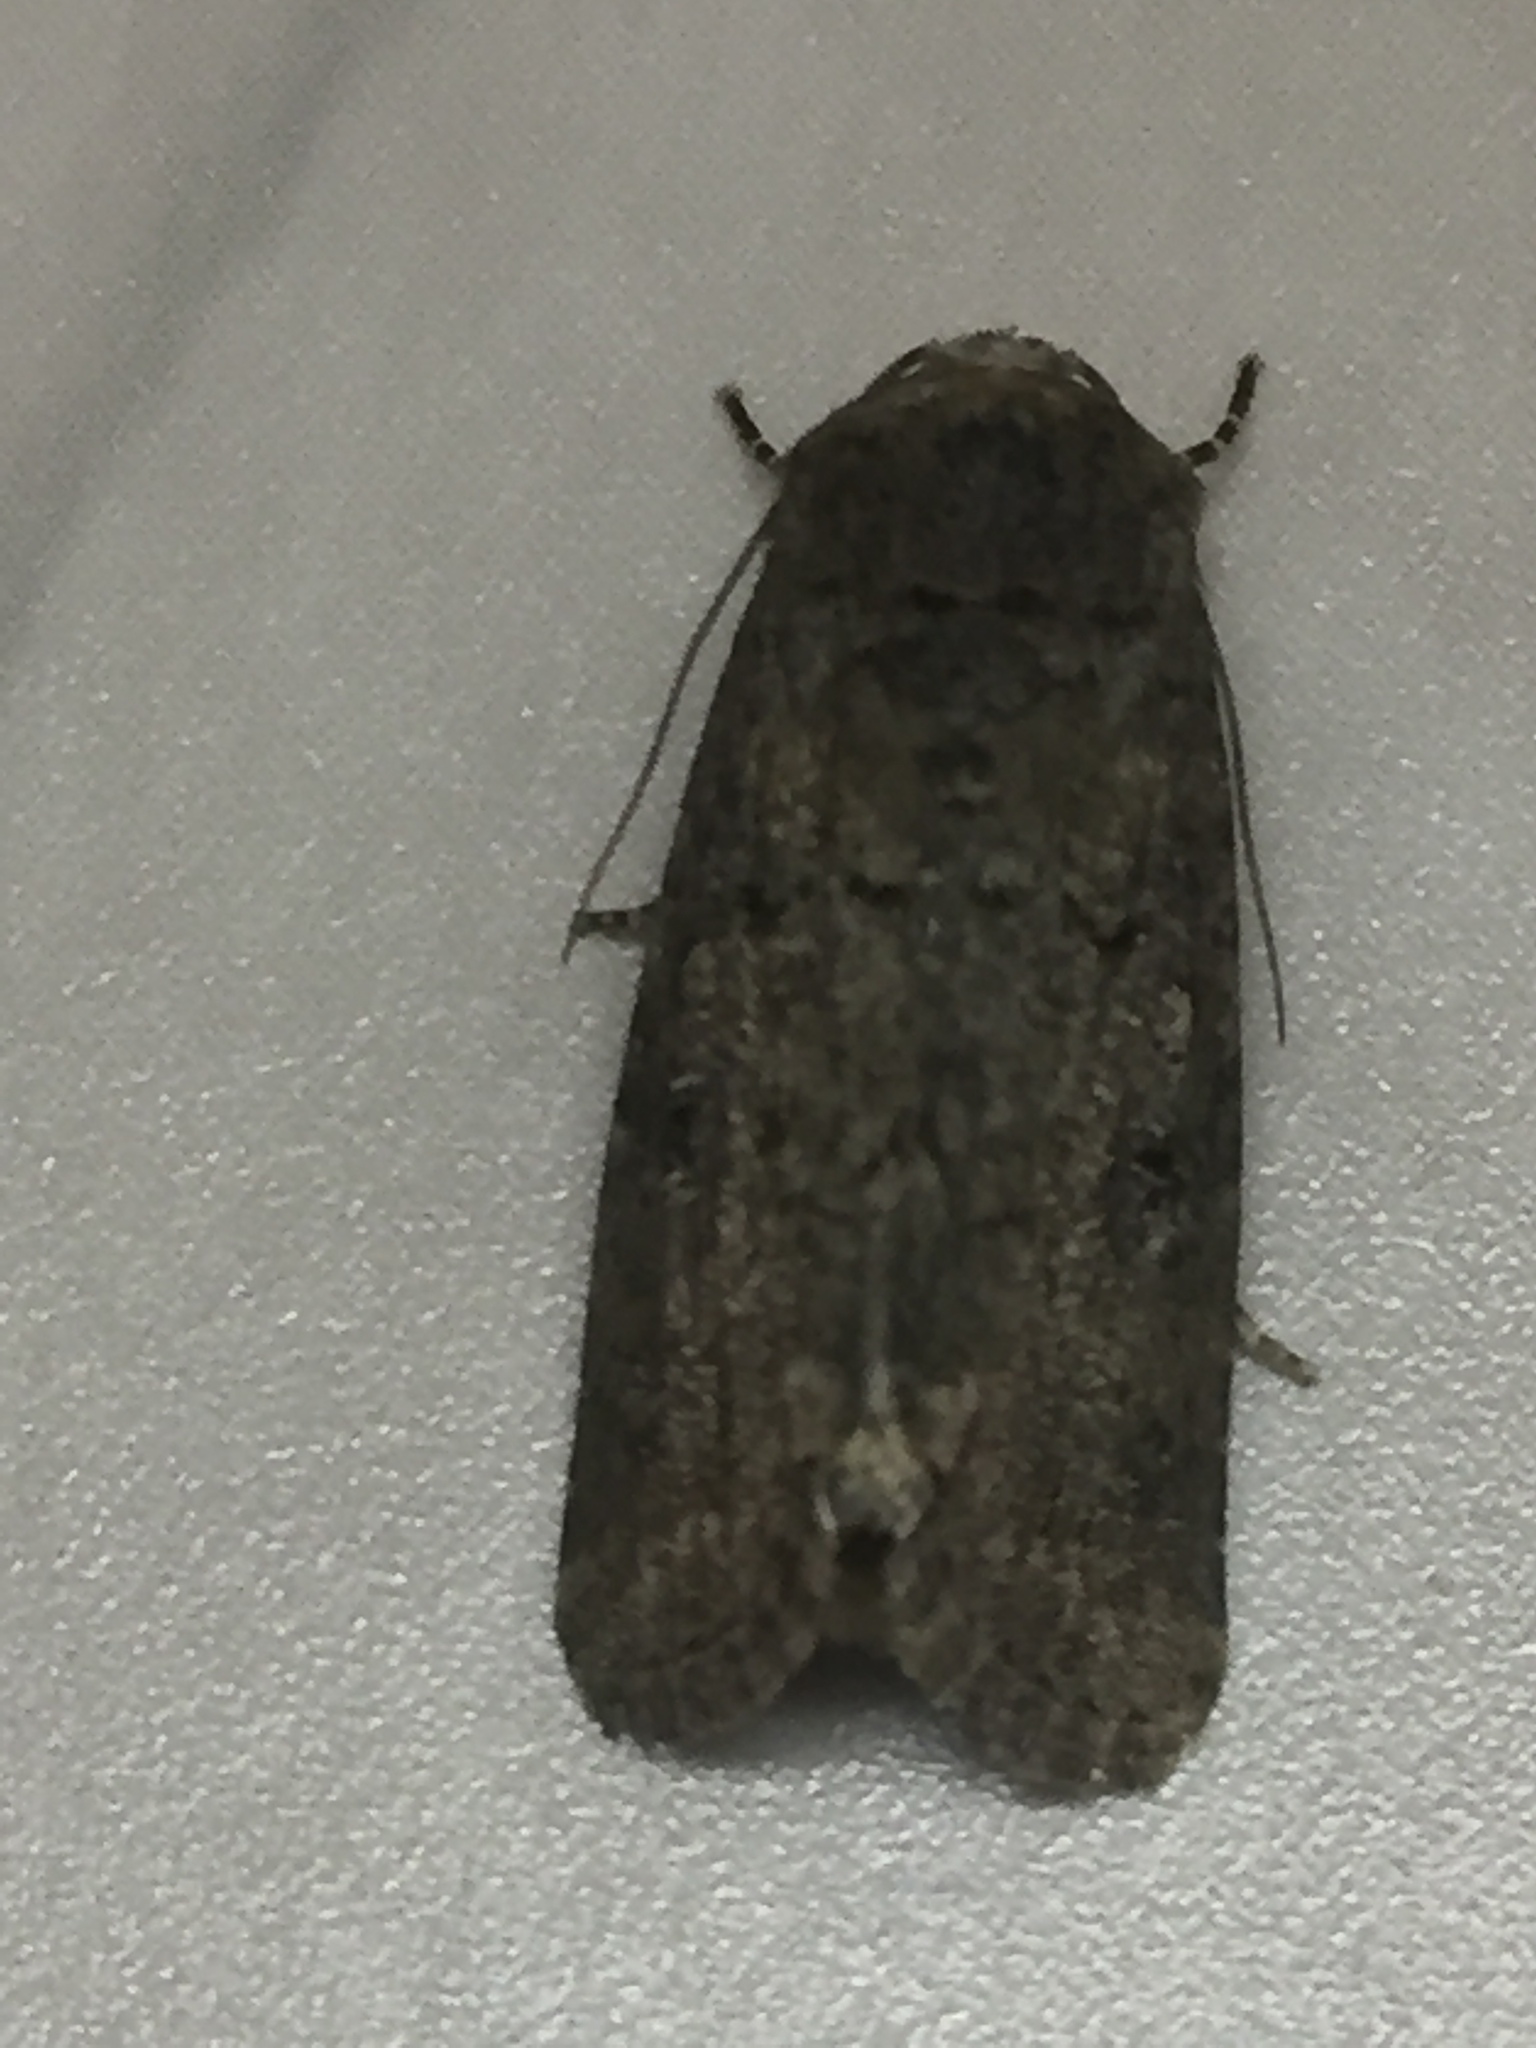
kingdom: Animalia
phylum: Arthropoda
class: Insecta
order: Lepidoptera
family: Noctuidae
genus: Klugeana
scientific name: Klugeana philoxalis
